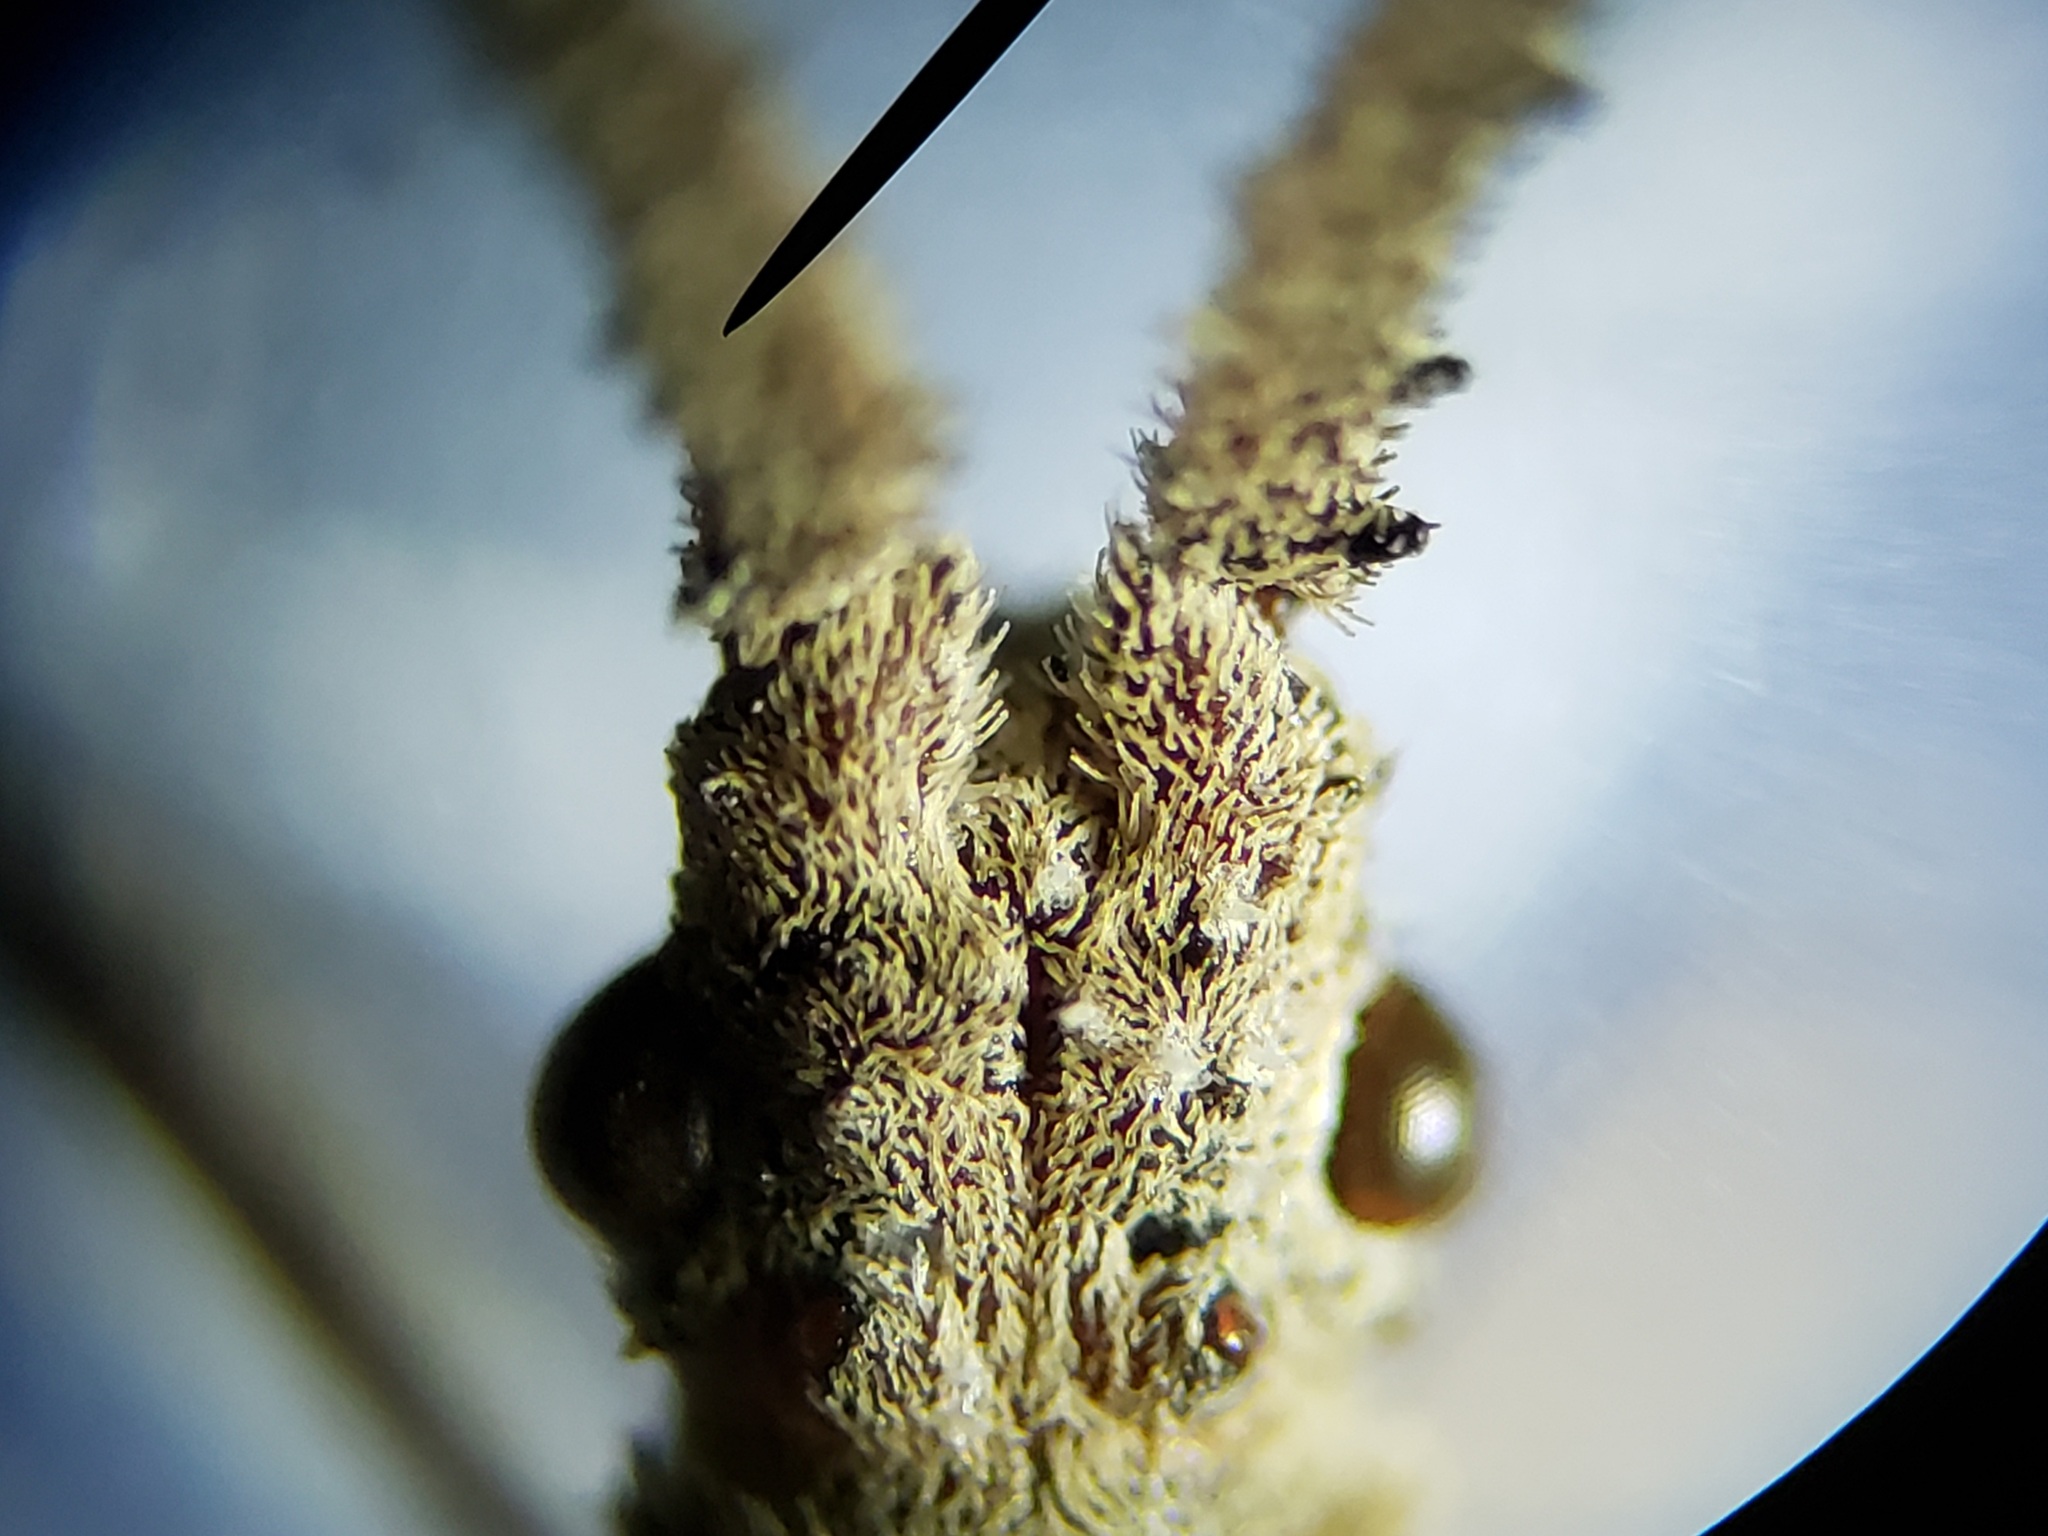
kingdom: Animalia
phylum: Arthropoda
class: Insecta
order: Hemiptera
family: Coreidae
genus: Chariesterus
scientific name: Chariesterus antennator
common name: Flat horned coreid
